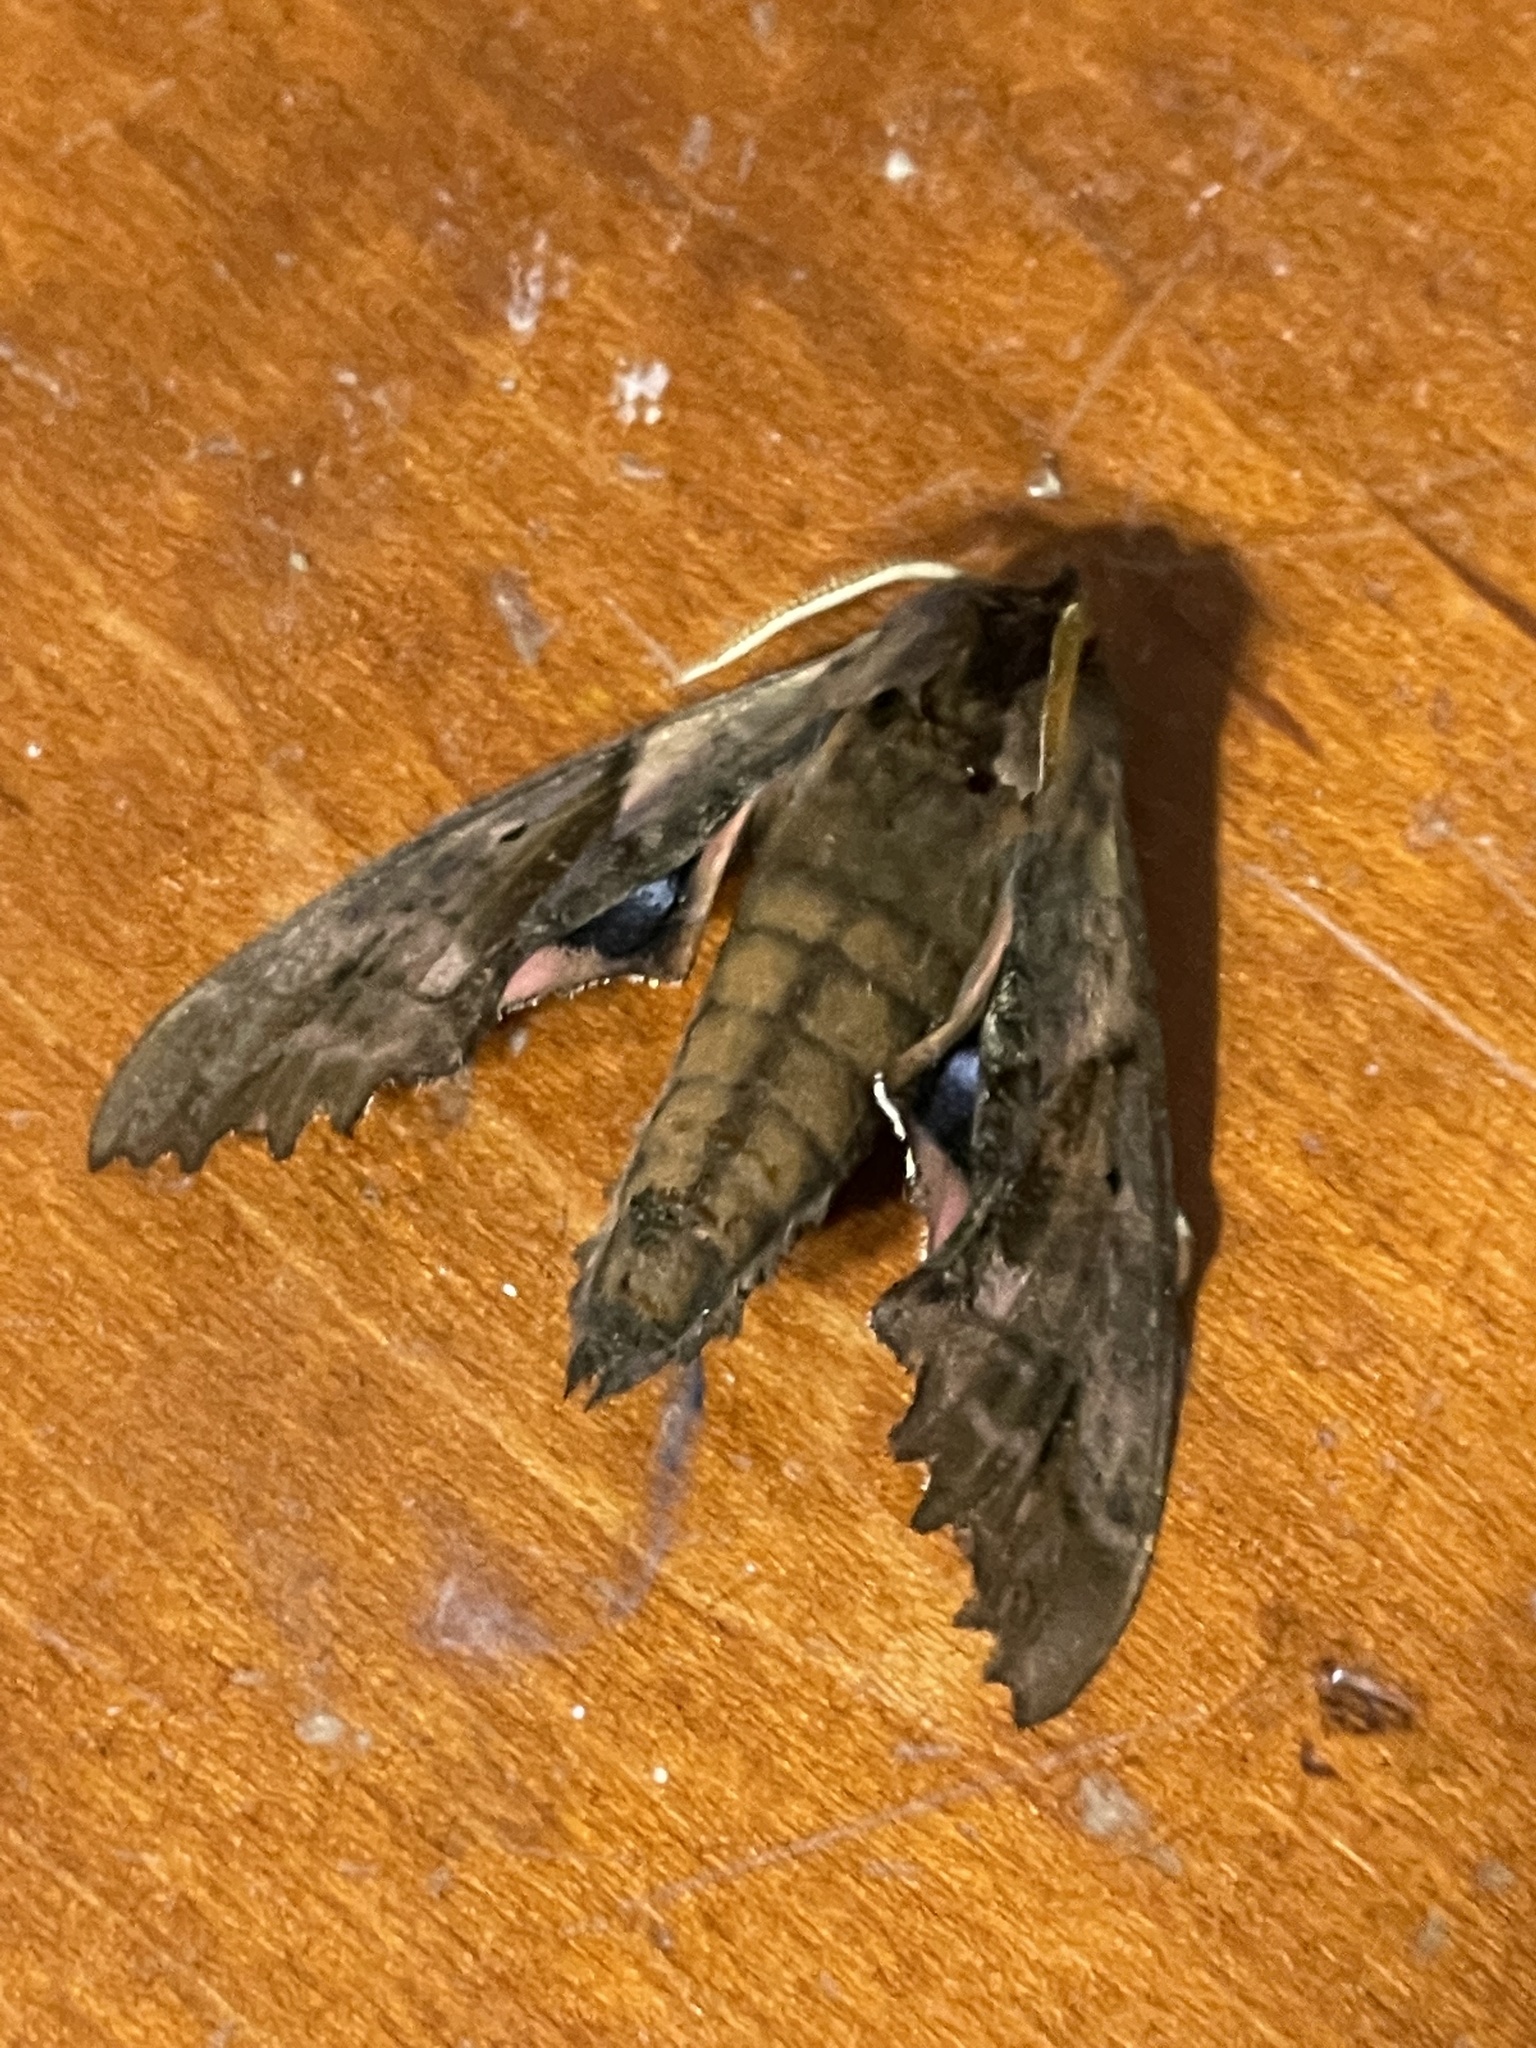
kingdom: Animalia
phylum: Arthropoda
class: Insecta
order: Lepidoptera
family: Sphingidae
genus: Paonias
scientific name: Paonias excaecata
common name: Blind-eyed sphinx
